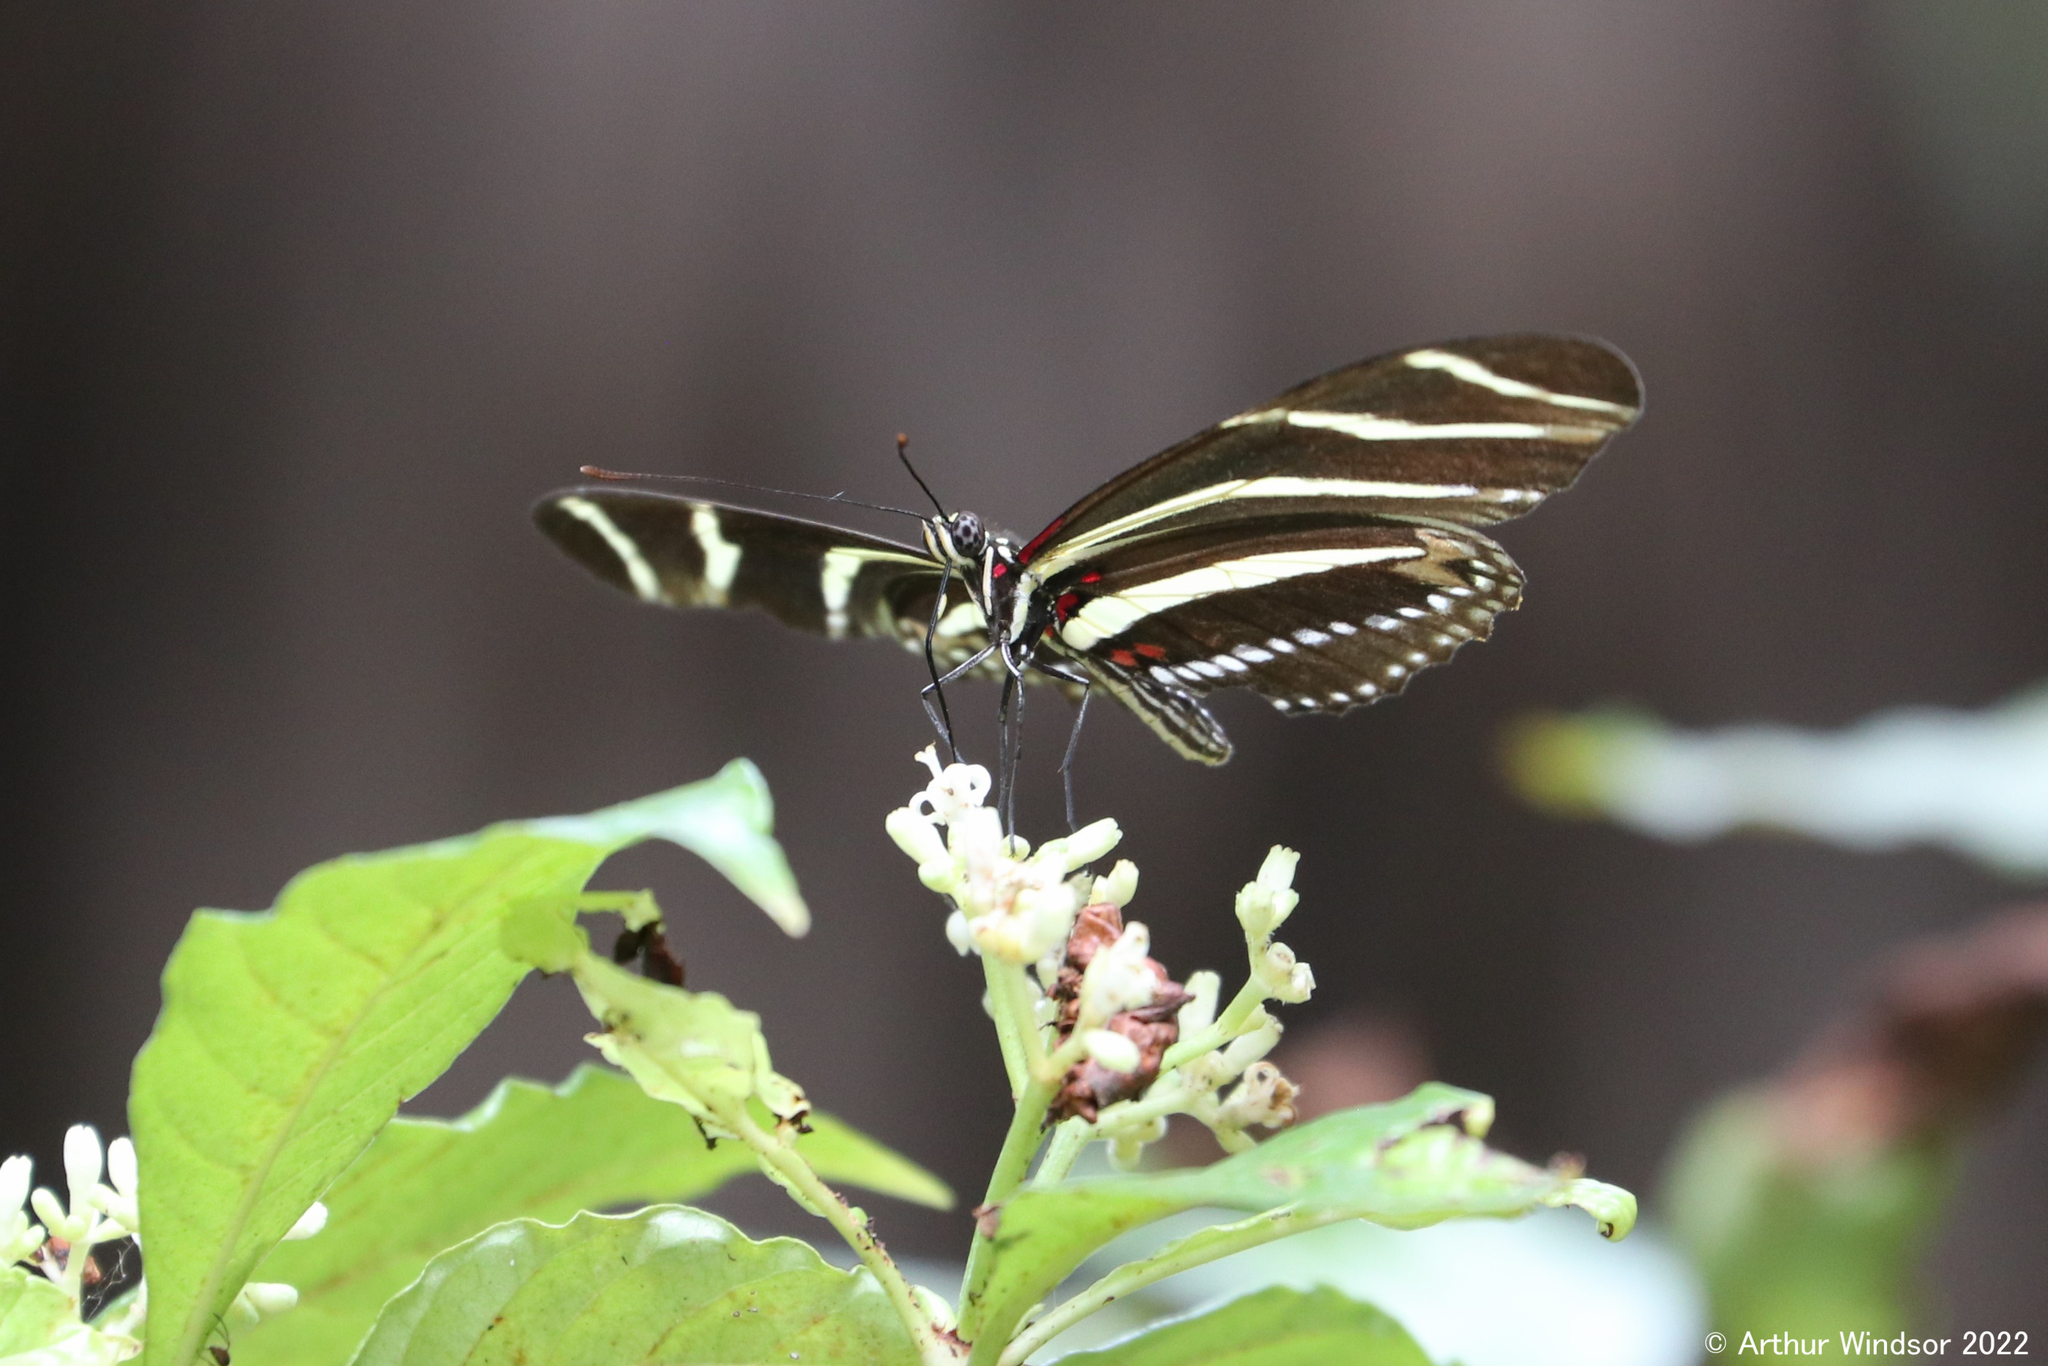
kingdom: Animalia
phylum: Arthropoda
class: Insecta
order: Lepidoptera
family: Nymphalidae
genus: Heliconius
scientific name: Heliconius charithonia
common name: Zebra long wing
